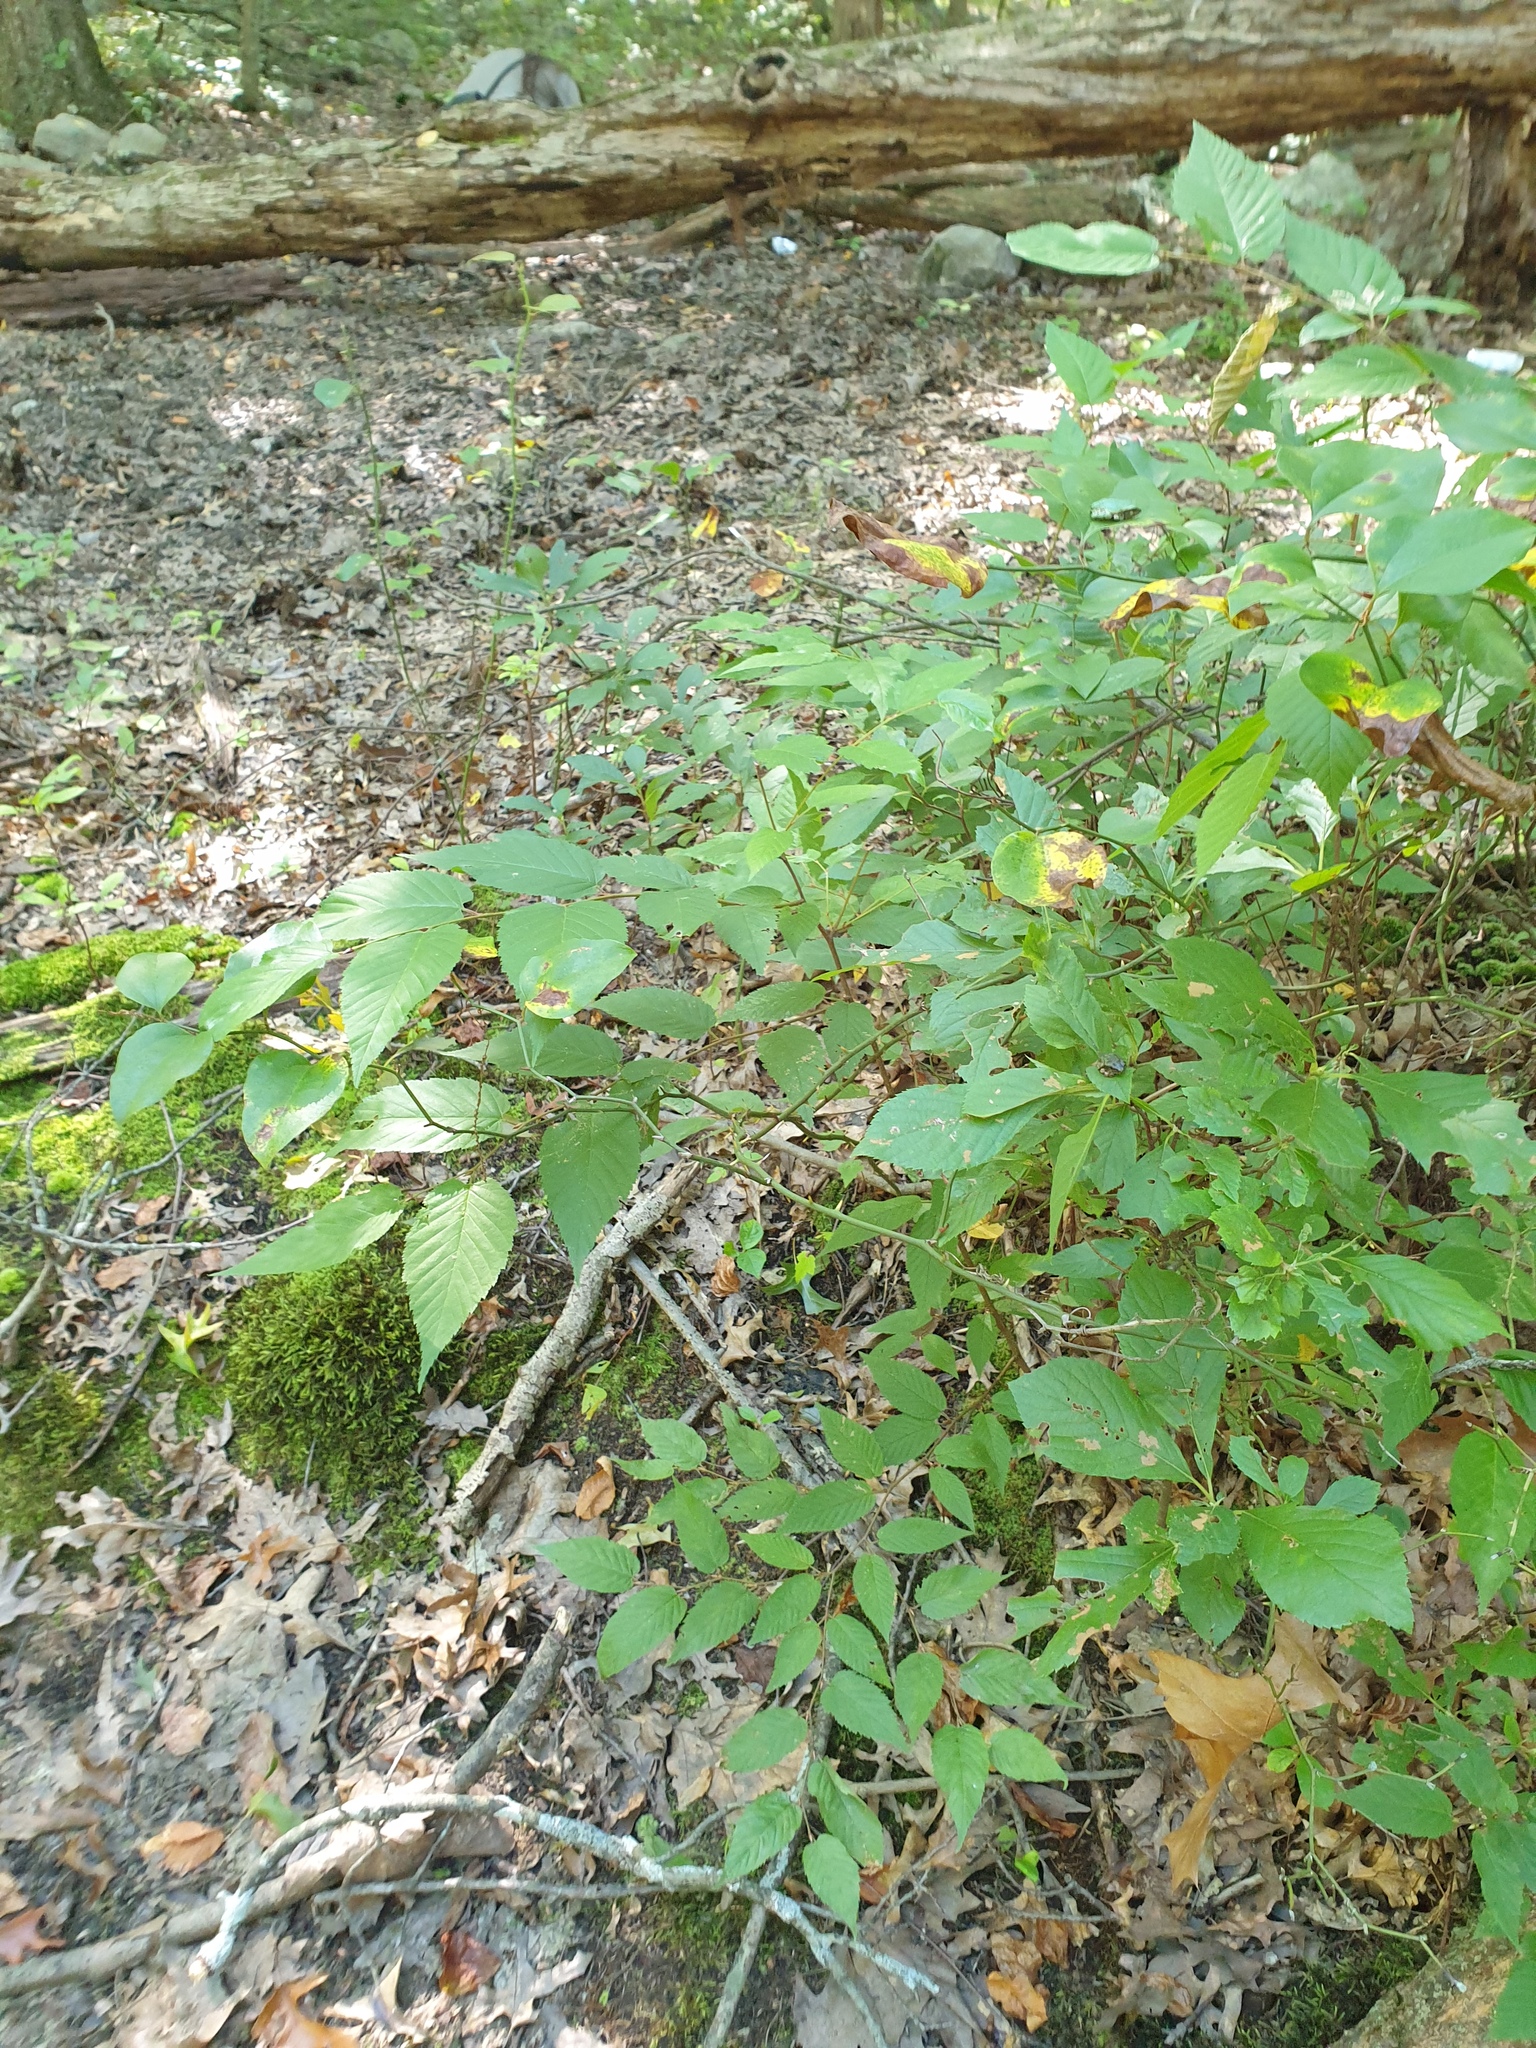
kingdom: Plantae
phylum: Tracheophyta
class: Magnoliopsida
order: Fagales
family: Betulaceae
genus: Carpinus
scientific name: Carpinus caroliniana
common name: American hornbeam
